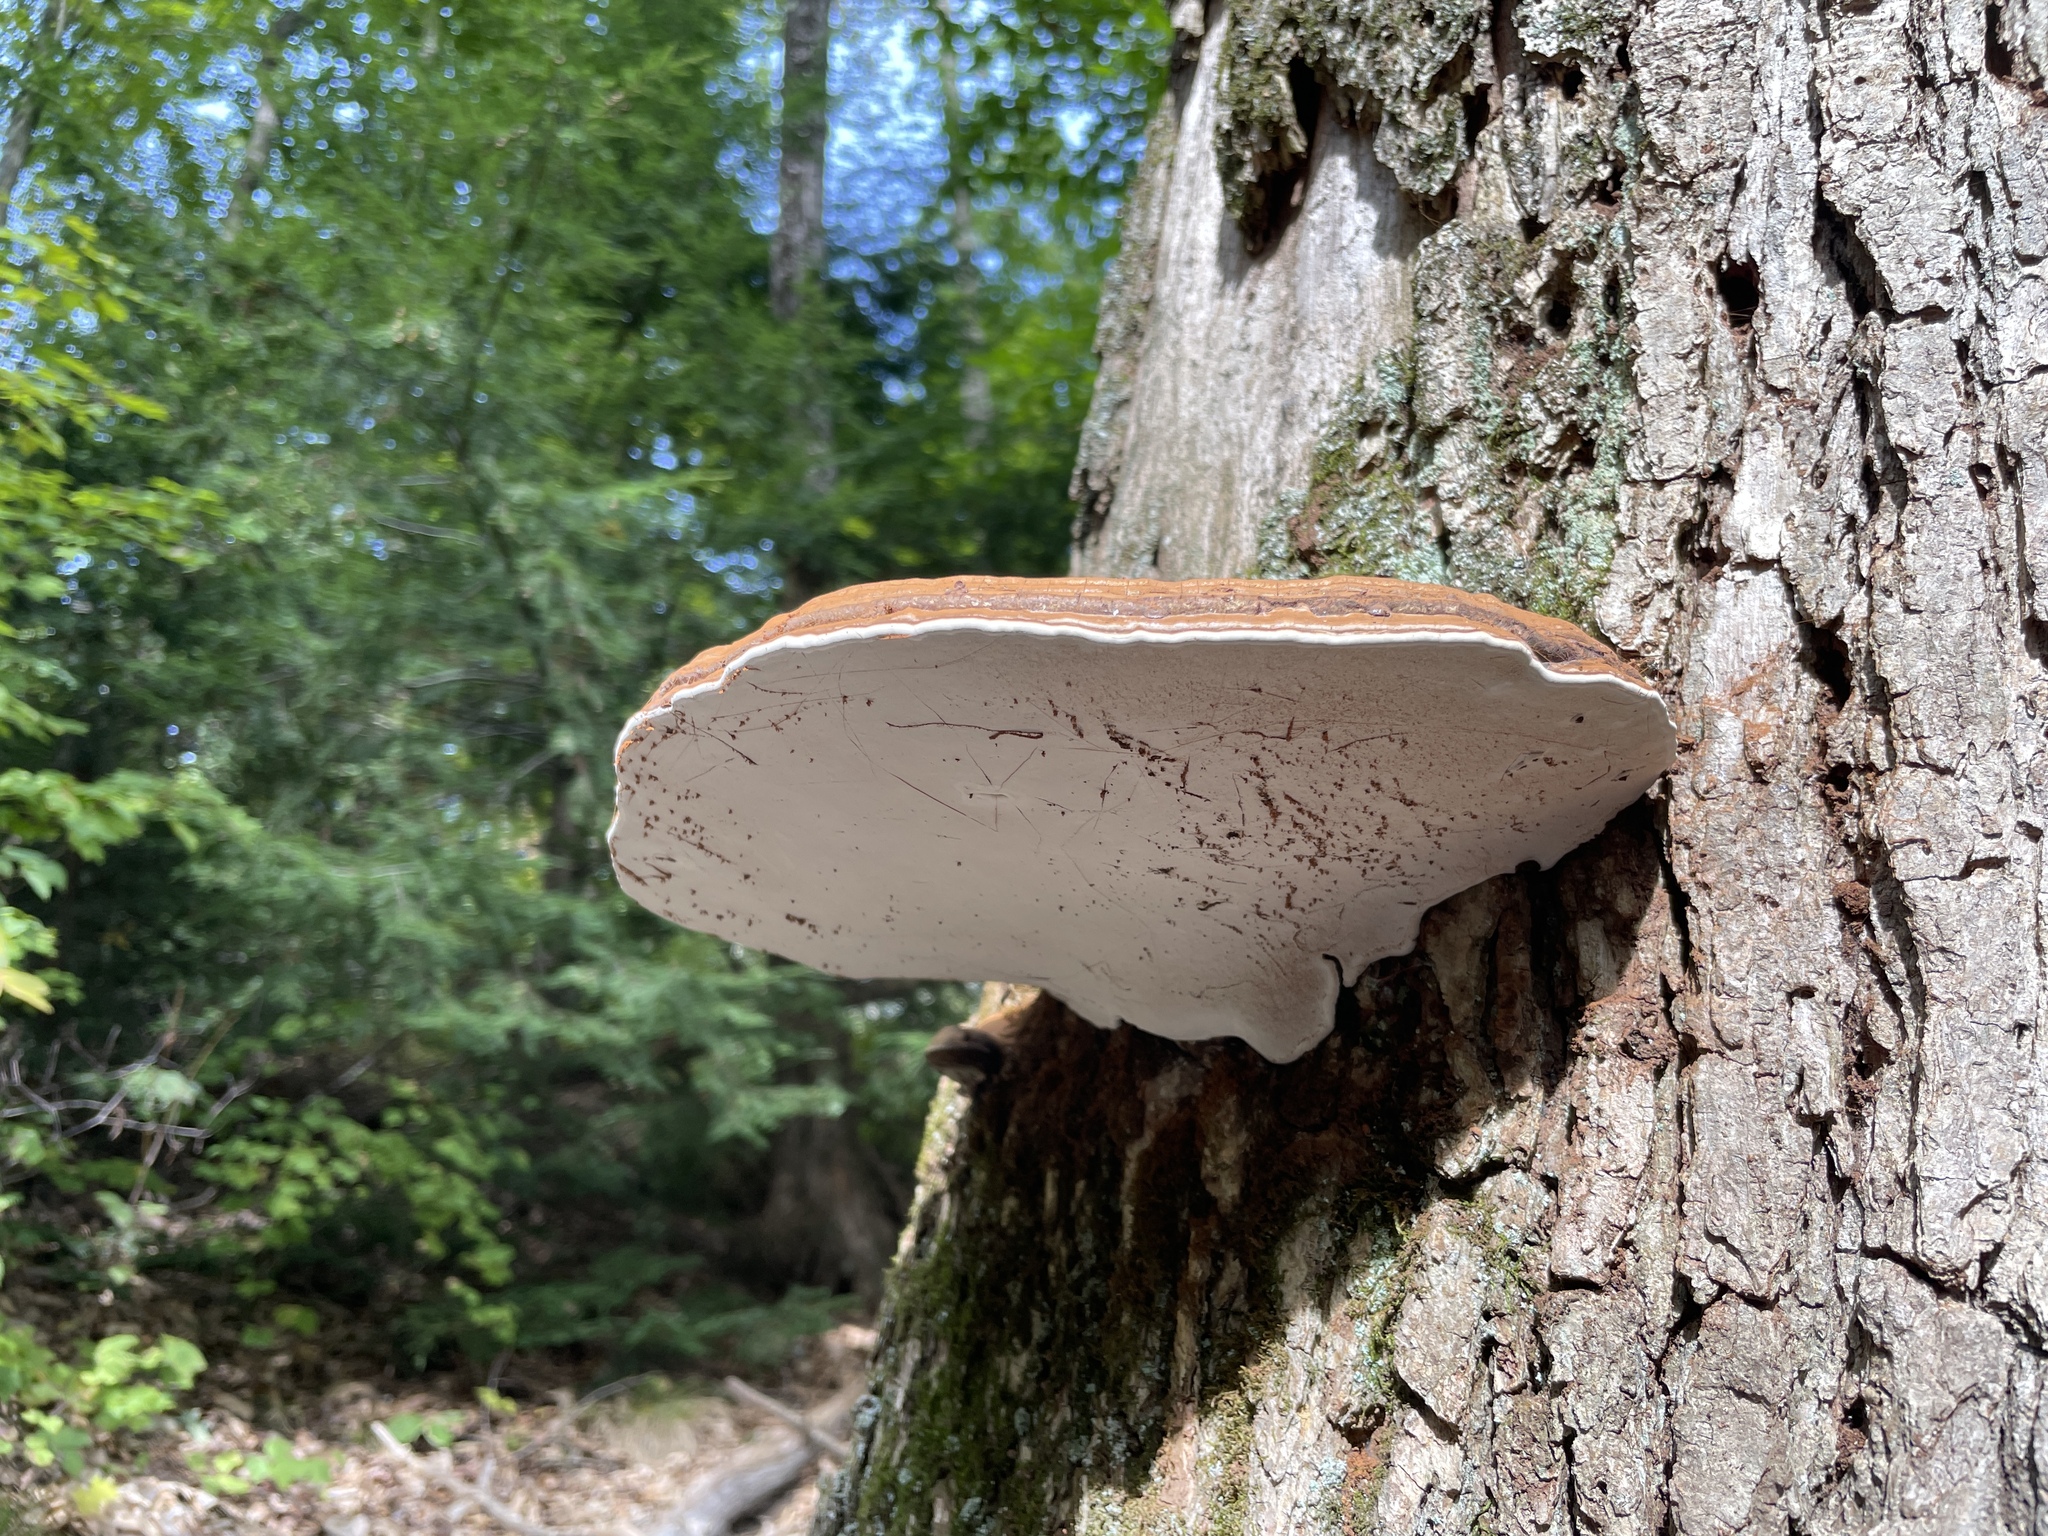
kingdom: Fungi
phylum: Basidiomycota
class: Agaricomycetes
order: Polyporales
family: Polyporaceae
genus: Ganoderma
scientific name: Ganoderma applanatum
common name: Artist's bracket
